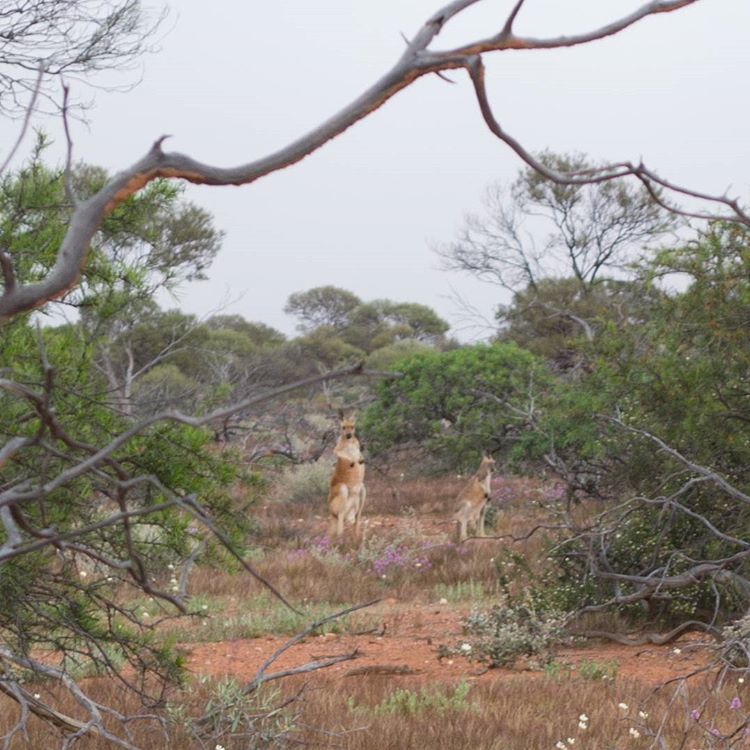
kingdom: Animalia
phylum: Chordata
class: Mammalia
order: Diprotodontia
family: Macropodidae
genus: Macropus
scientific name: Macropus rufus
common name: Red kangaroo
